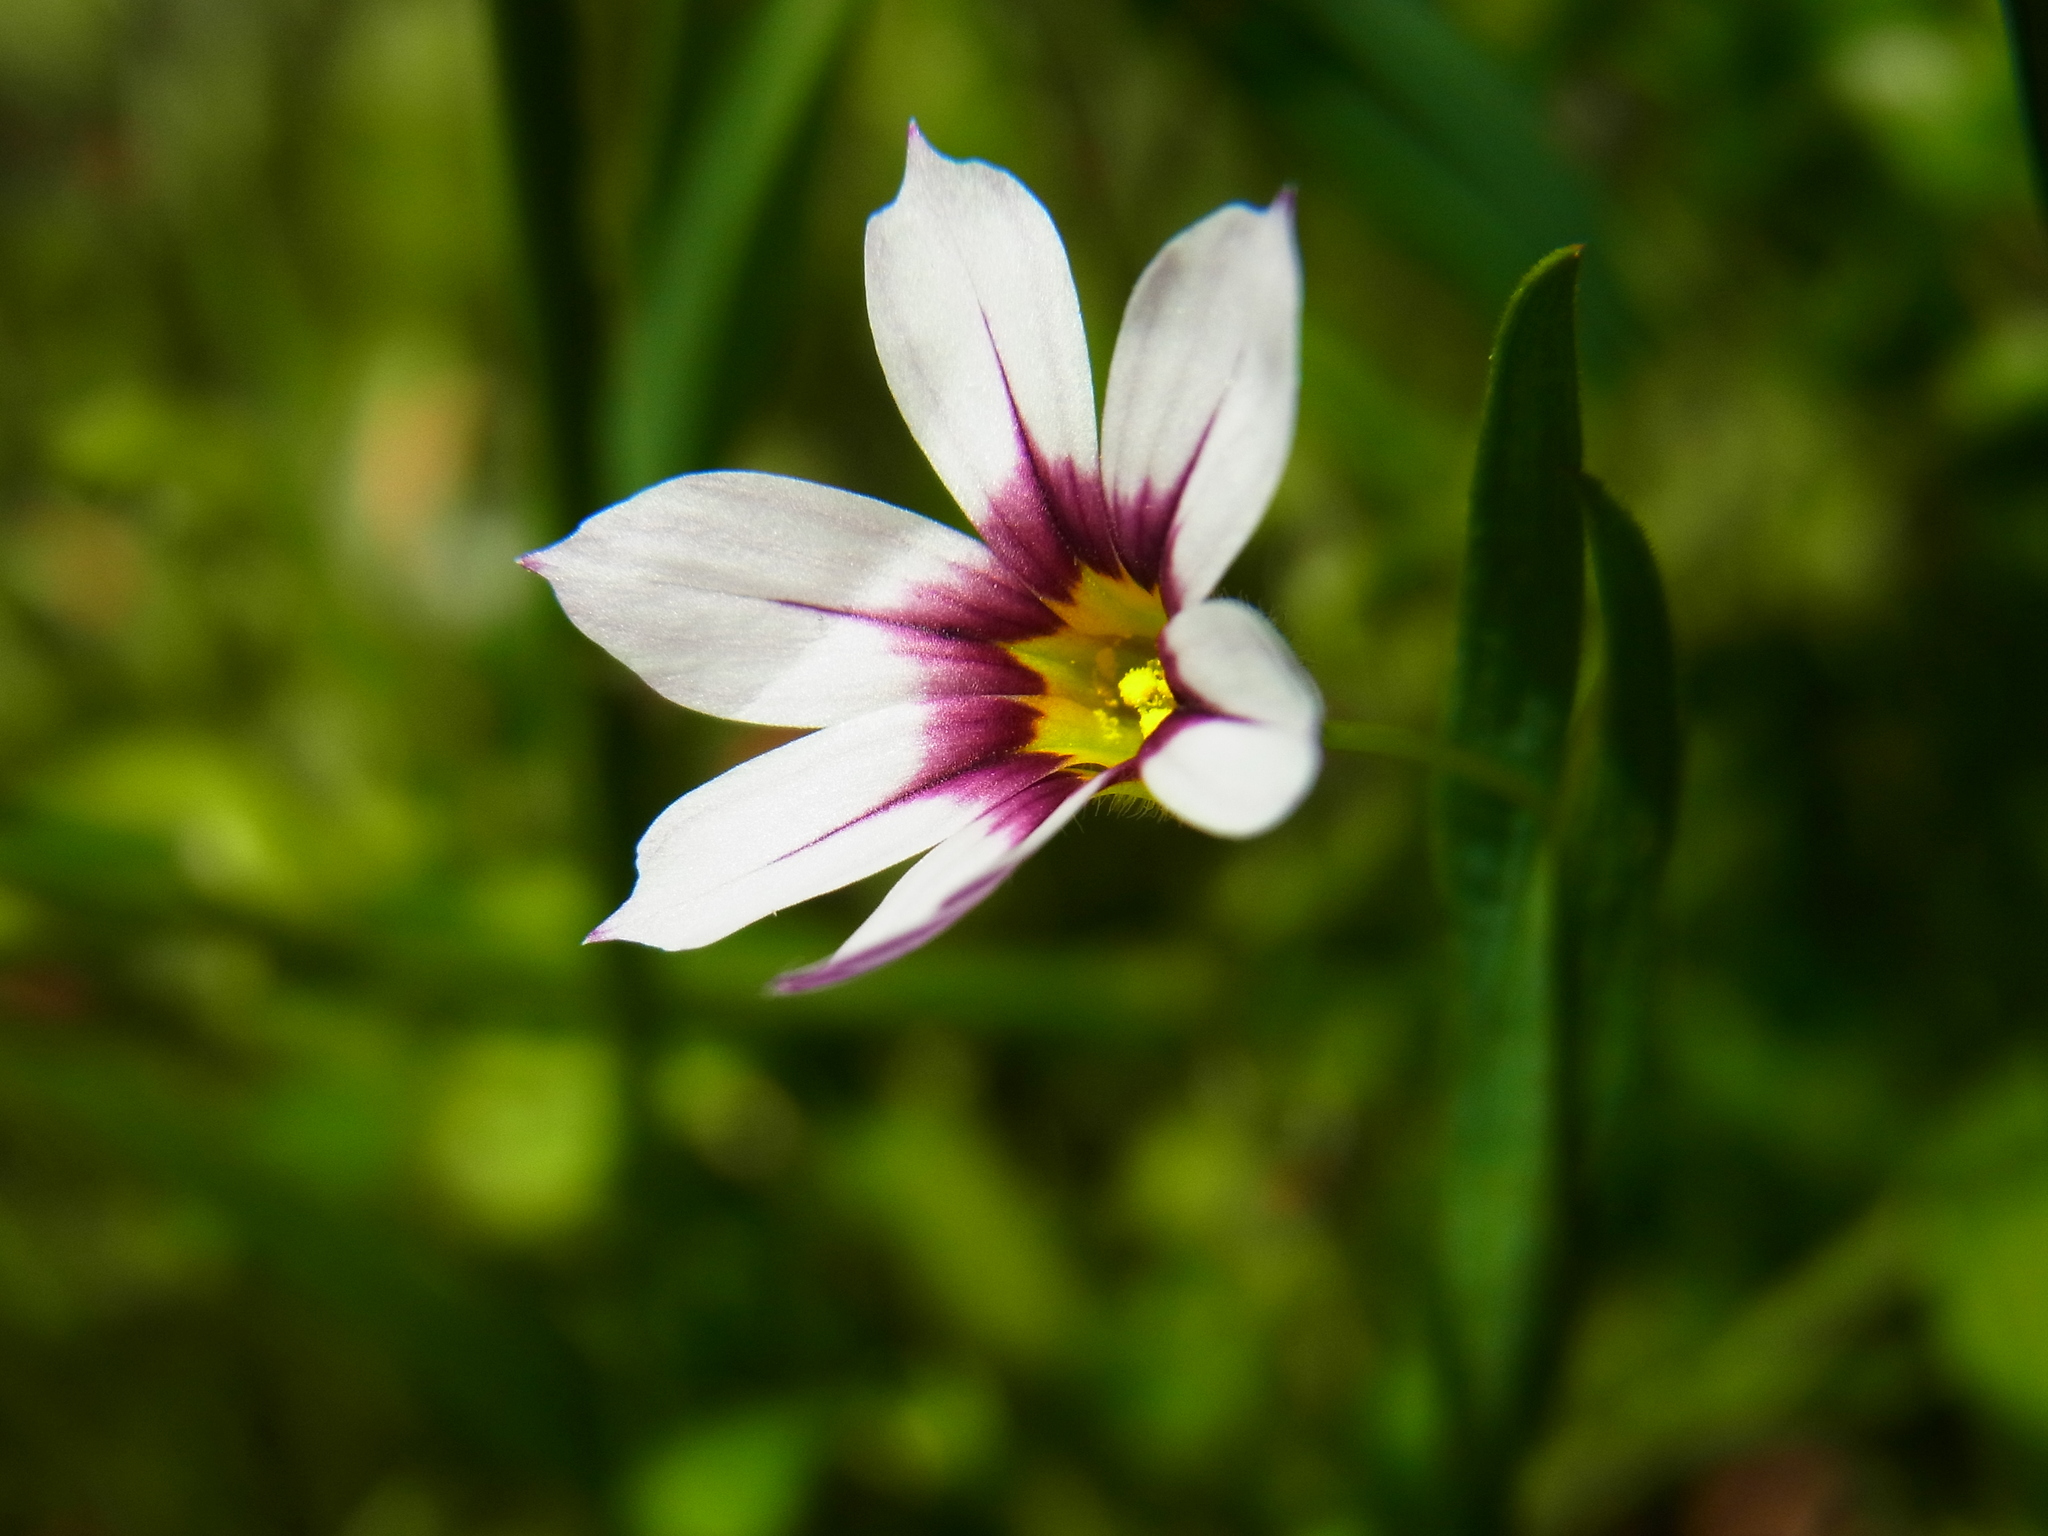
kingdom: Plantae
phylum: Tracheophyta
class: Liliopsida
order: Asparagales
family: Iridaceae
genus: Sisyrinchium
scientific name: Sisyrinchium micranthum
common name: Bermuda pigroot
